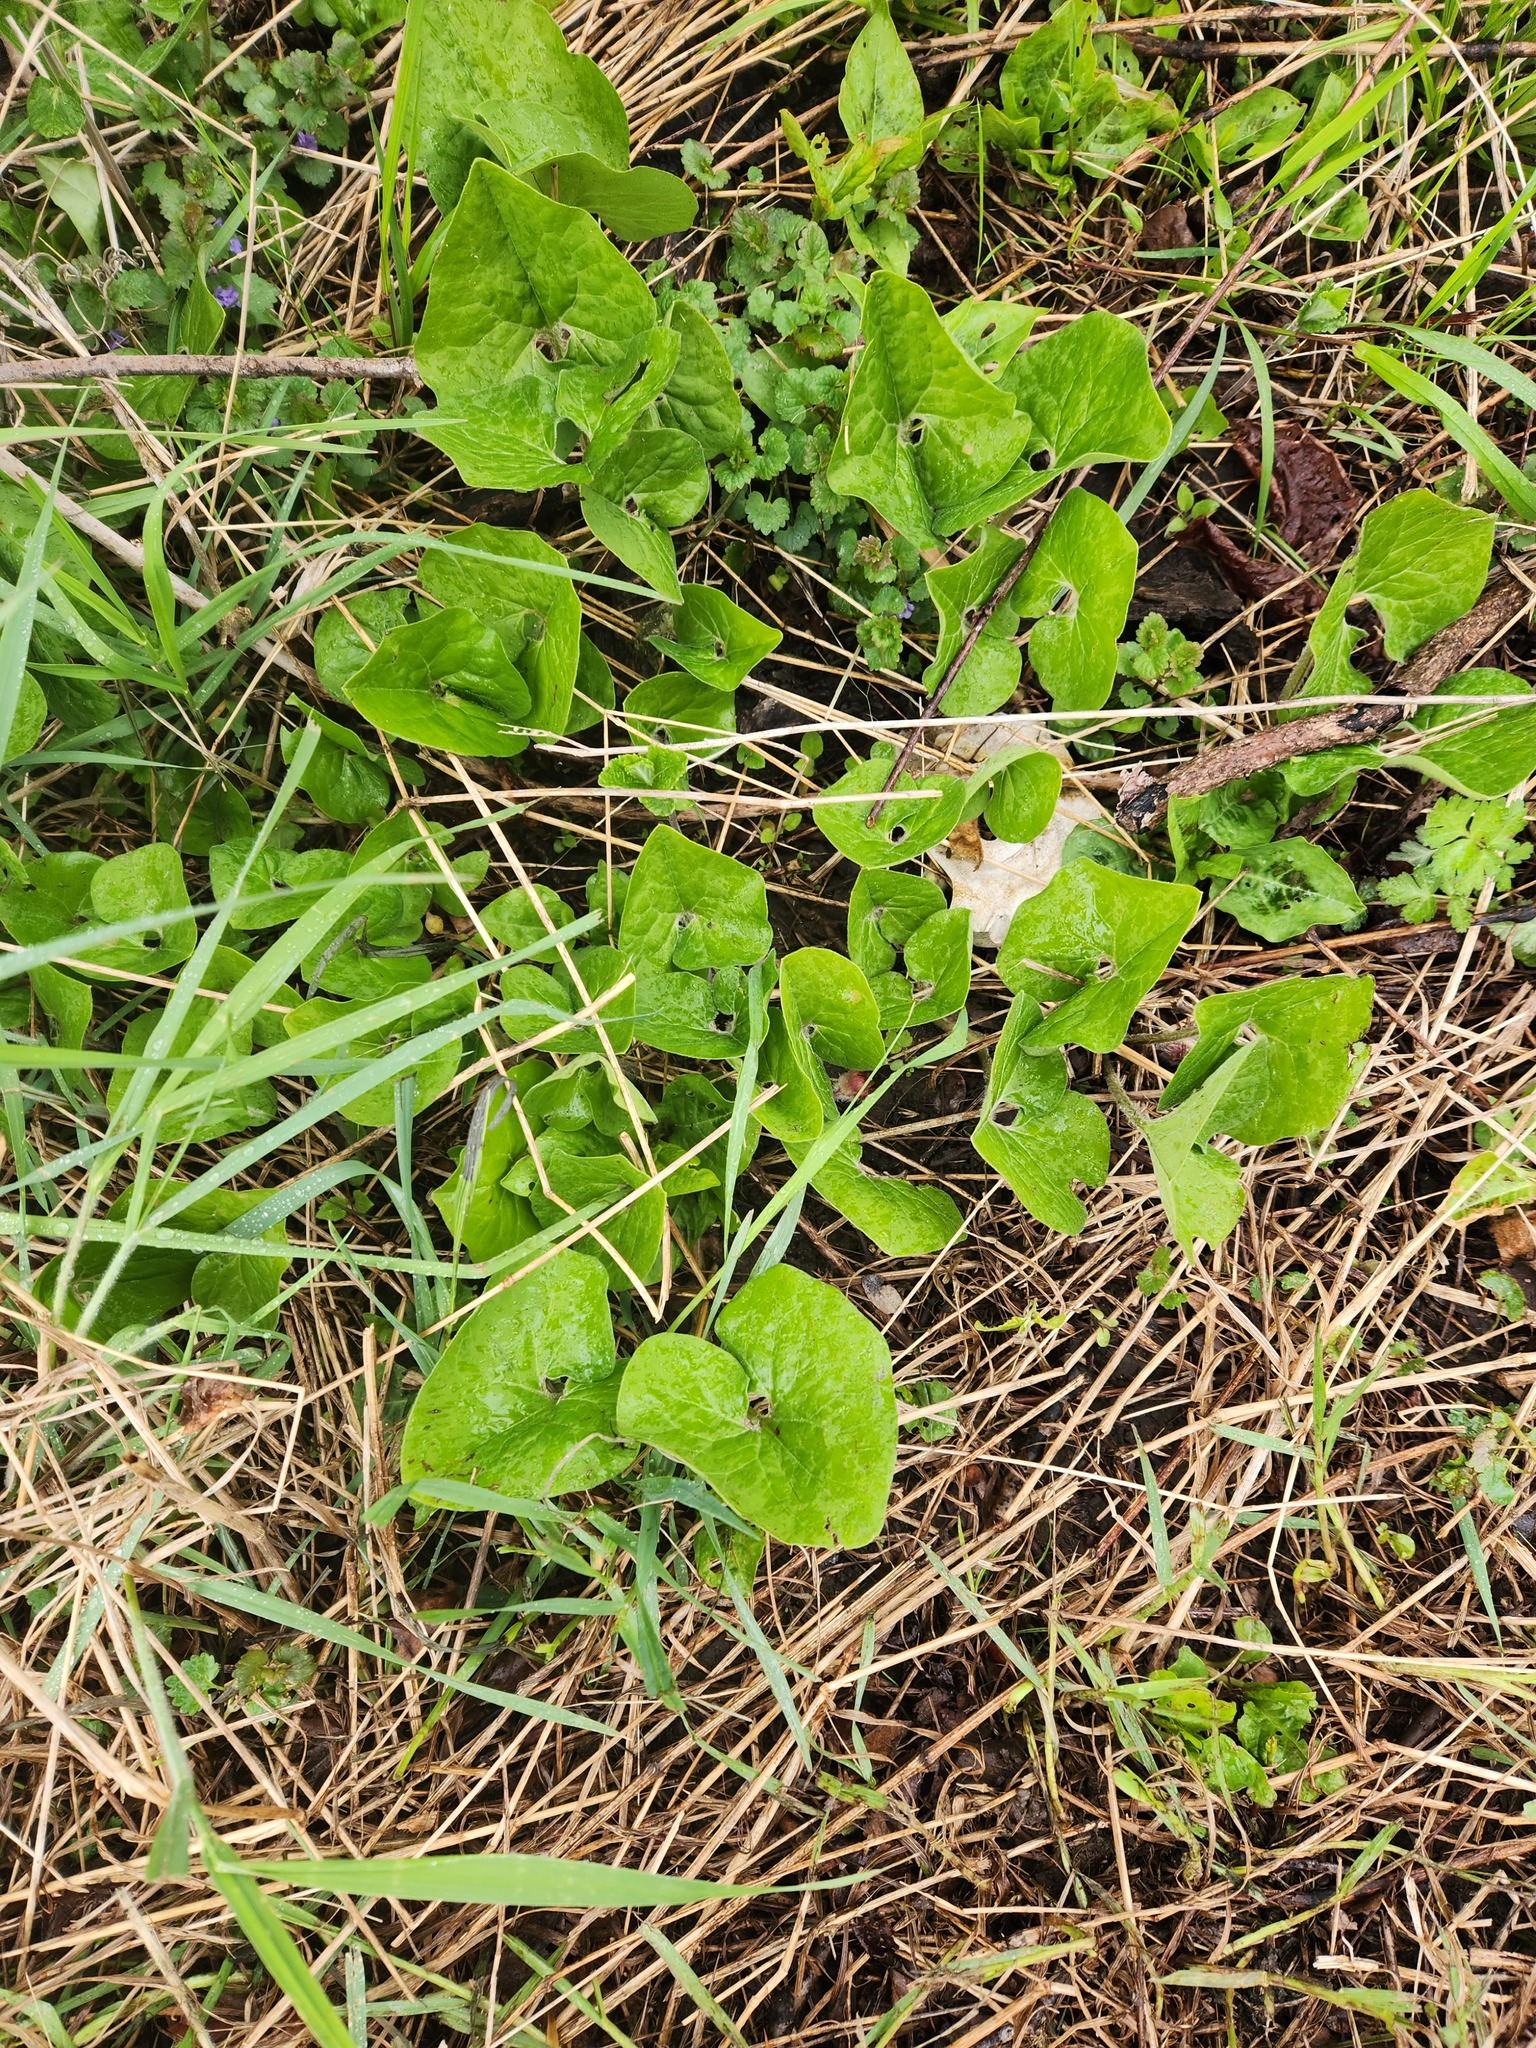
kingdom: Plantae
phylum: Tracheophyta
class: Magnoliopsida
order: Piperales
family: Aristolochiaceae
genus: Asarum
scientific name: Asarum canadense
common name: Wild ginger
